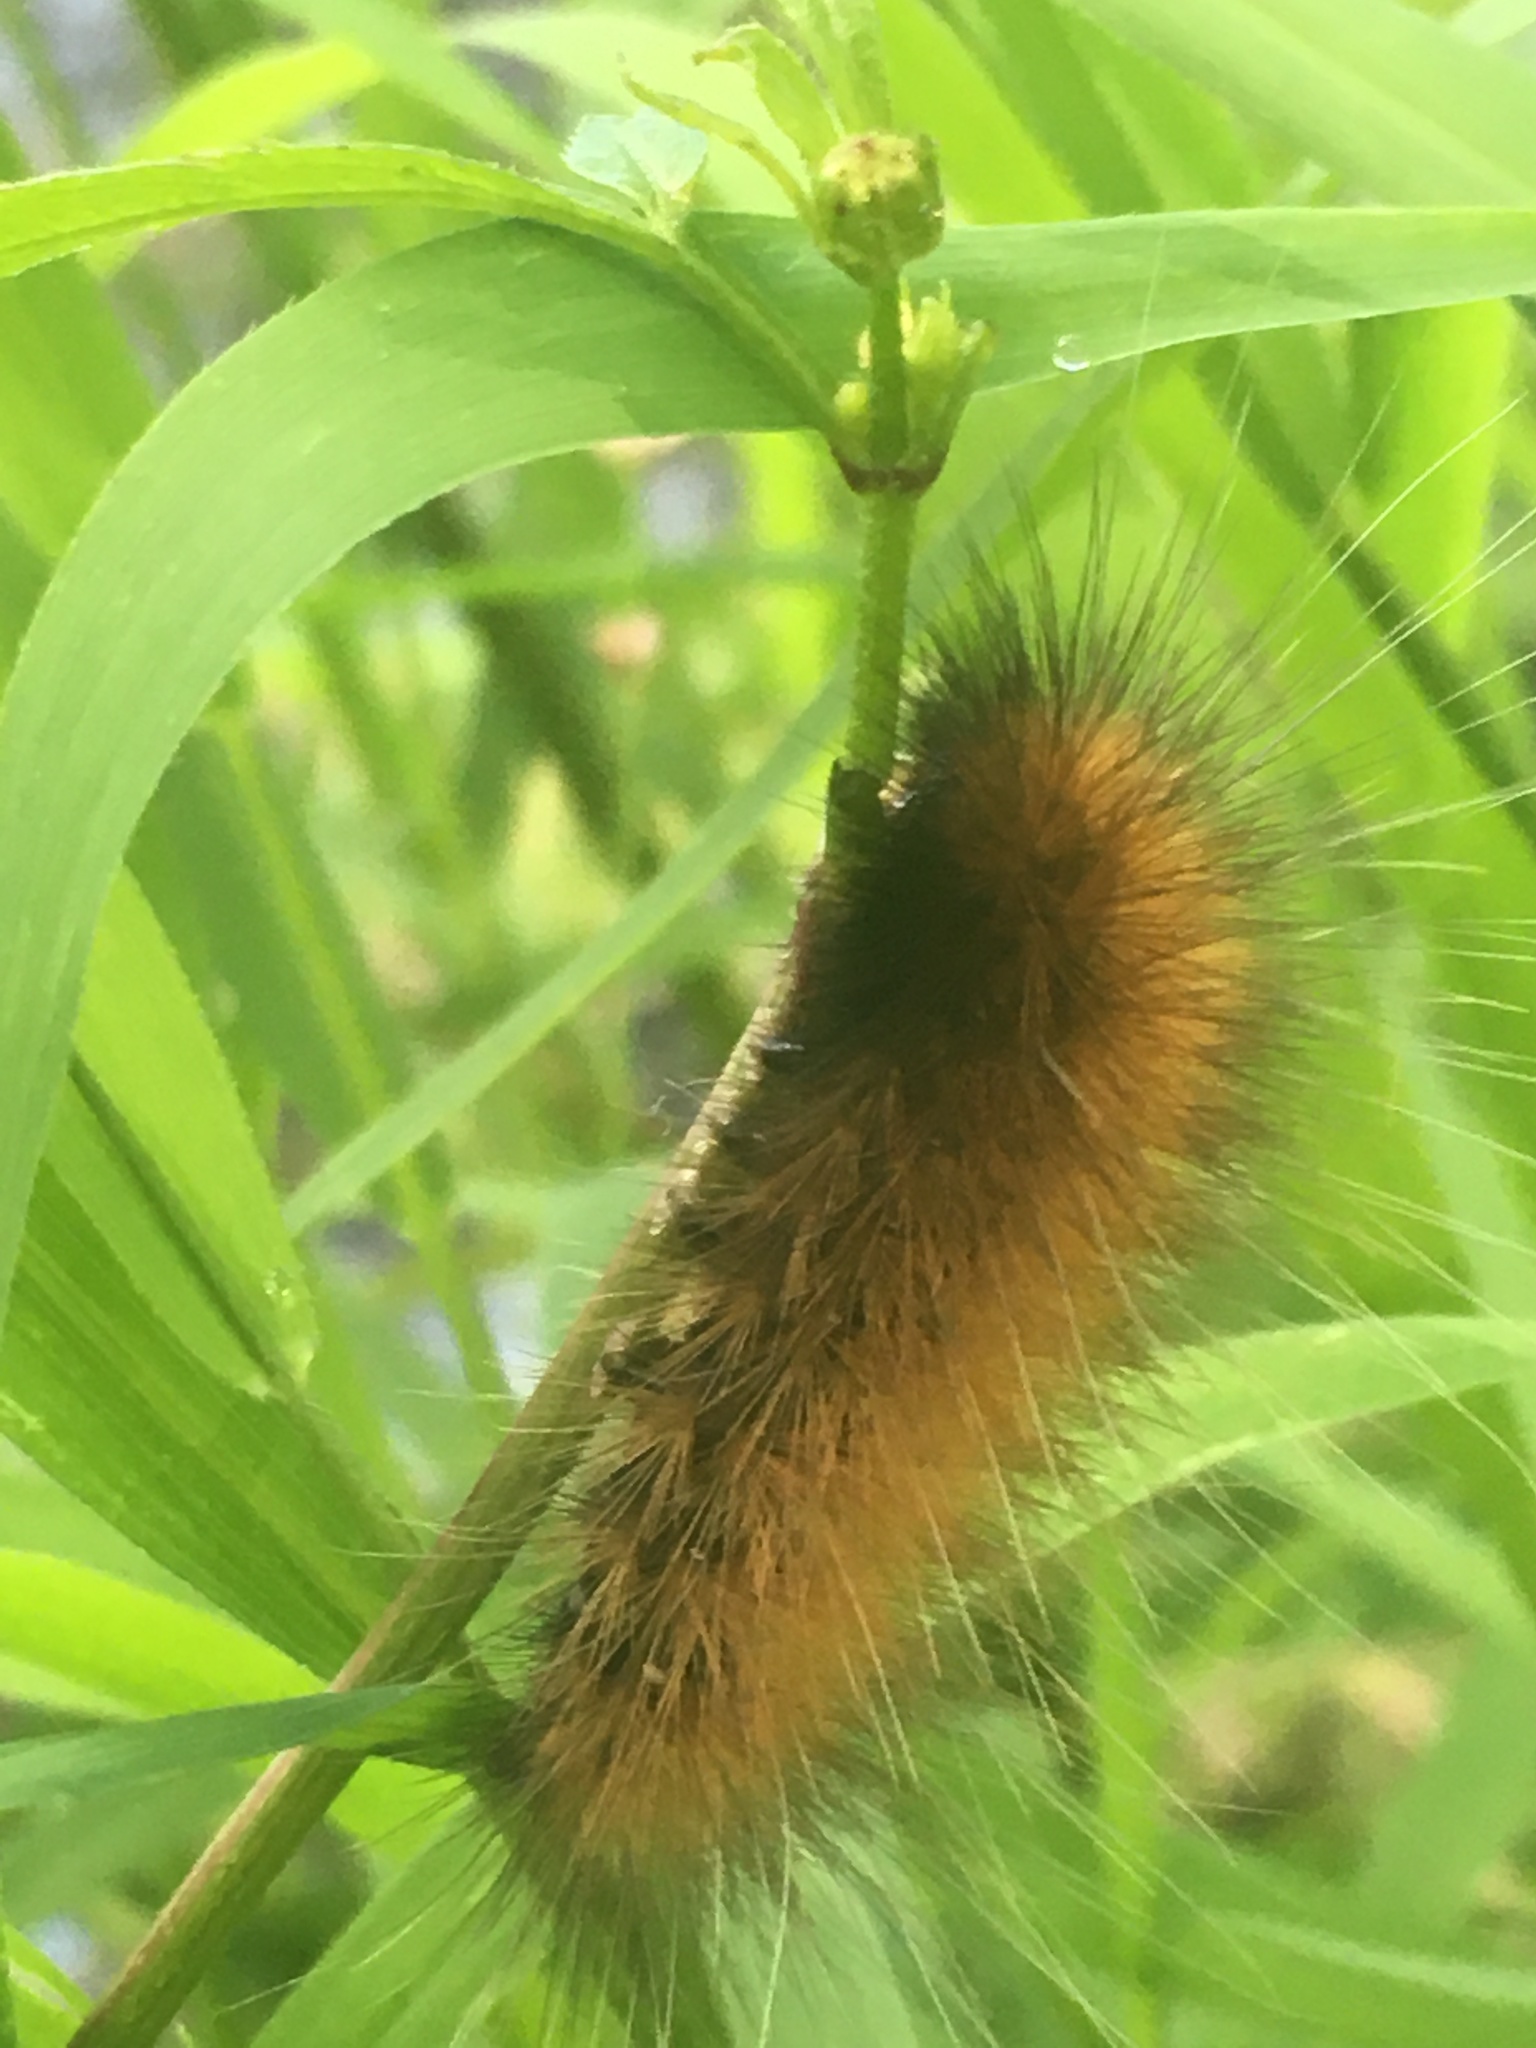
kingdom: Animalia
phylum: Arthropoda
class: Insecta
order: Lepidoptera
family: Erebidae
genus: Spilosoma
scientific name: Spilosoma virginica
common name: Virginia tiger moth
